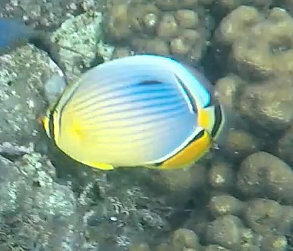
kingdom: Animalia
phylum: Chordata
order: Perciformes
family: Chaetodontidae
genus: Chaetodon
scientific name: Chaetodon trifasciatus
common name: Redfin butterflyfish
